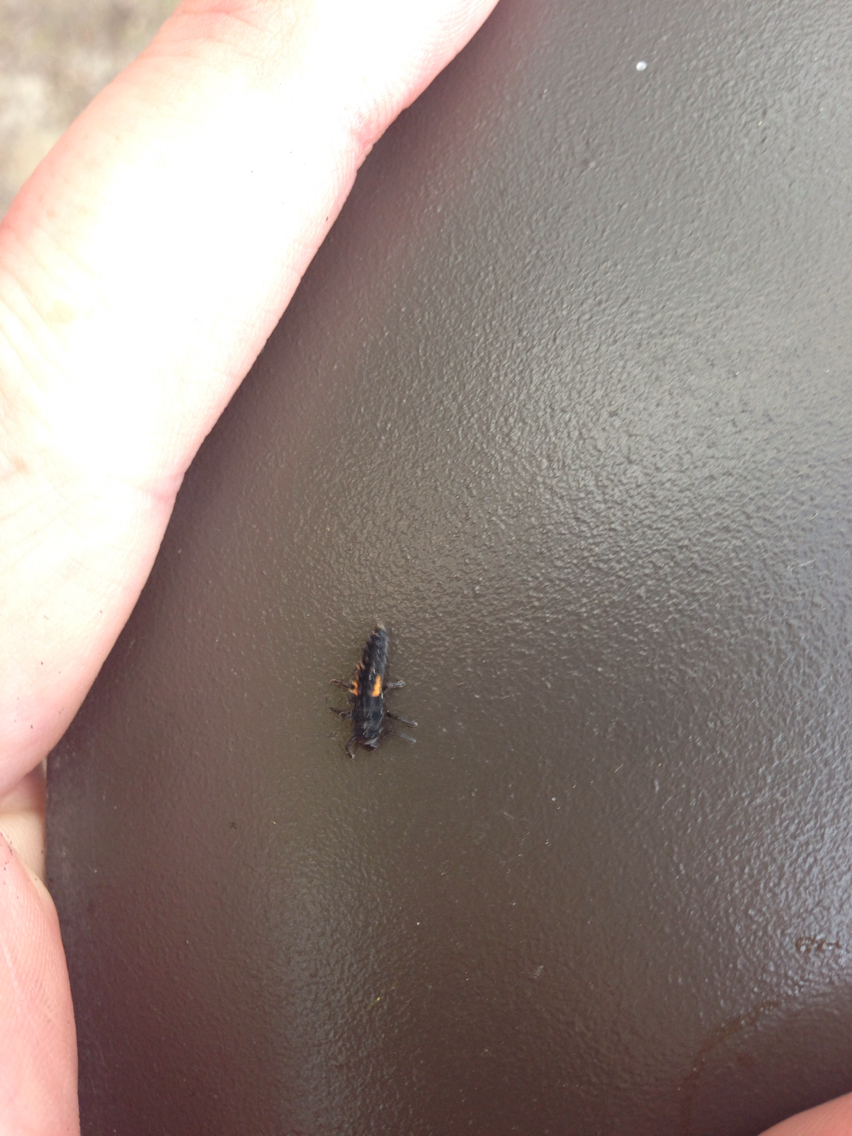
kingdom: Animalia
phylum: Arthropoda
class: Insecta
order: Coleoptera
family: Coccinellidae
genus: Harmonia
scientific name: Harmonia axyridis
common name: Harlequin ladybird
